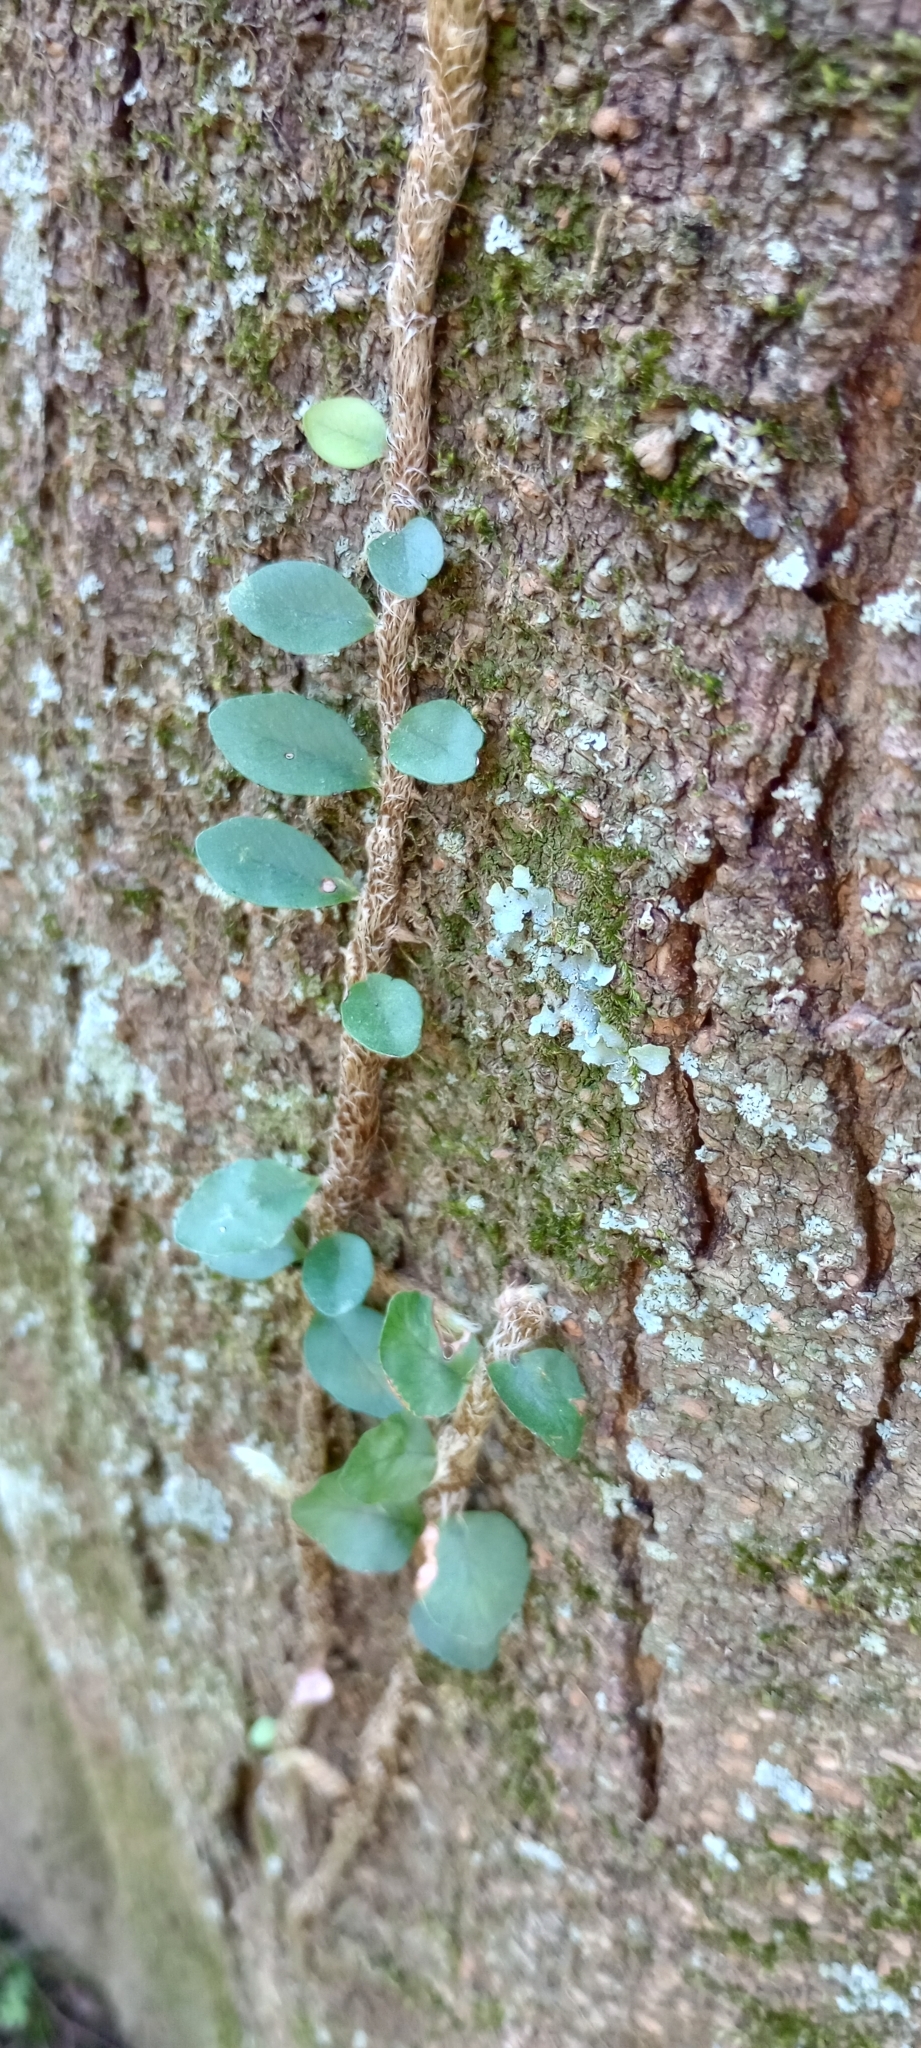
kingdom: Plantae
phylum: Tracheophyta
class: Polypodiopsida
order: Polypodiales
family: Polypodiaceae
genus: Microgramma
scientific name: Microgramma mortoniana
